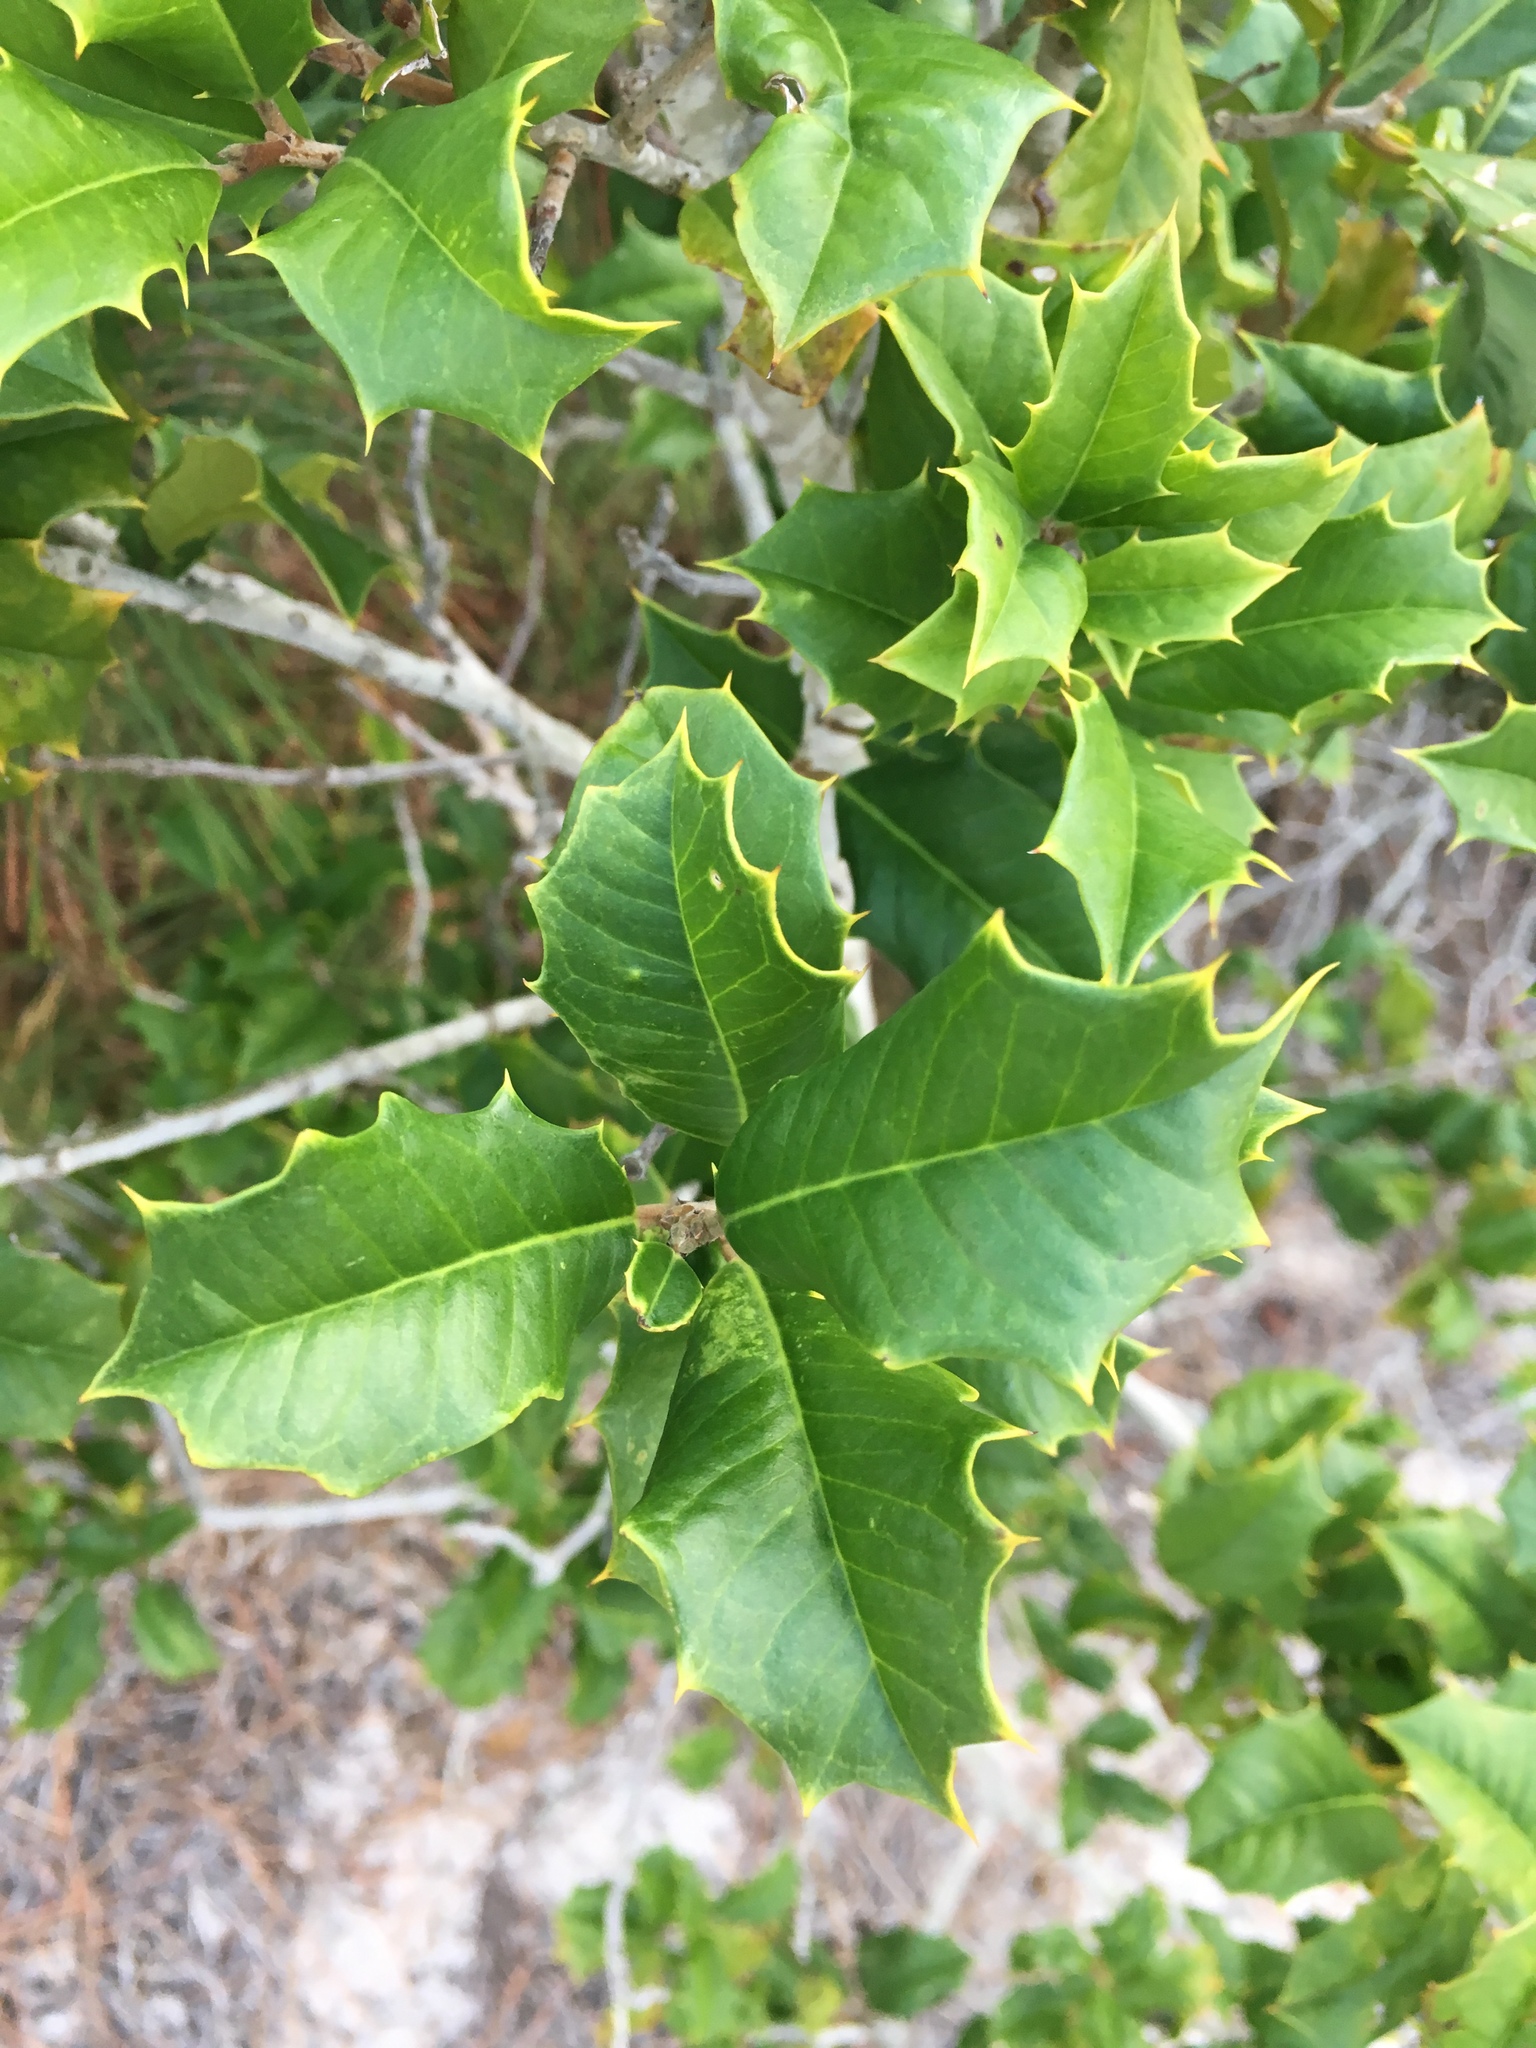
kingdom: Plantae
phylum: Tracheophyta
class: Magnoliopsida
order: Aquifoliales
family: Aquifoliaceae
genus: Ilex
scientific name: Ilex opaca
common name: American holly
